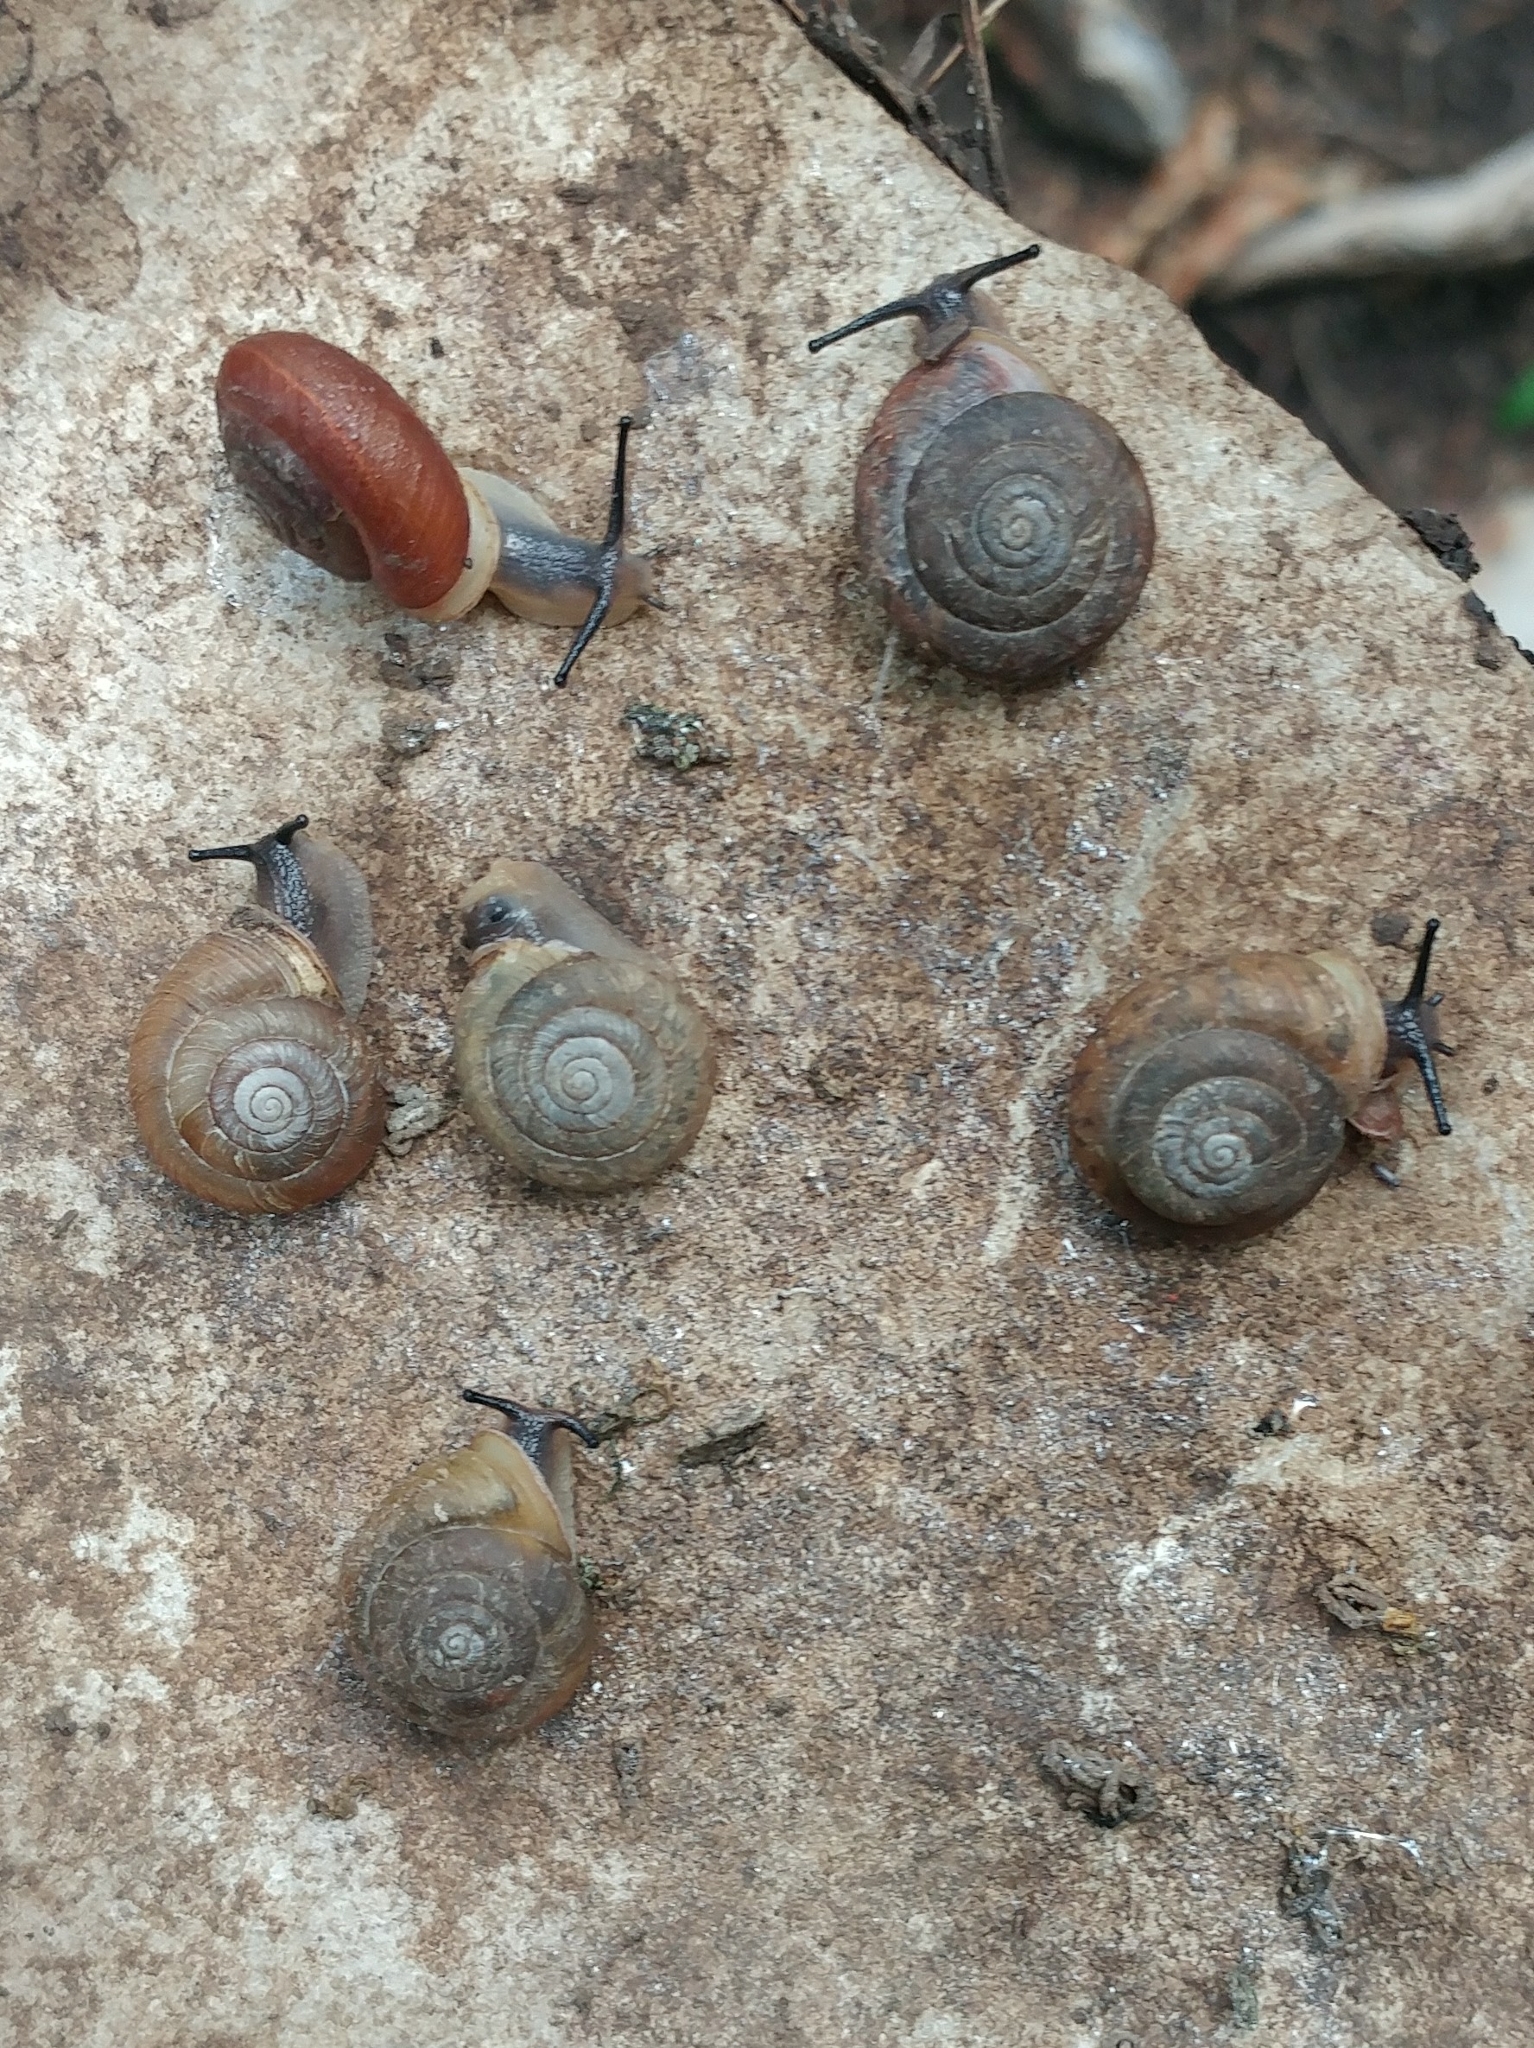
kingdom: Animalia
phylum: Mollusca
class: Gastropoda
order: Stylommatophora
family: Polygyridae
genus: Ashmunella
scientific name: Ashmunella rhyssa
